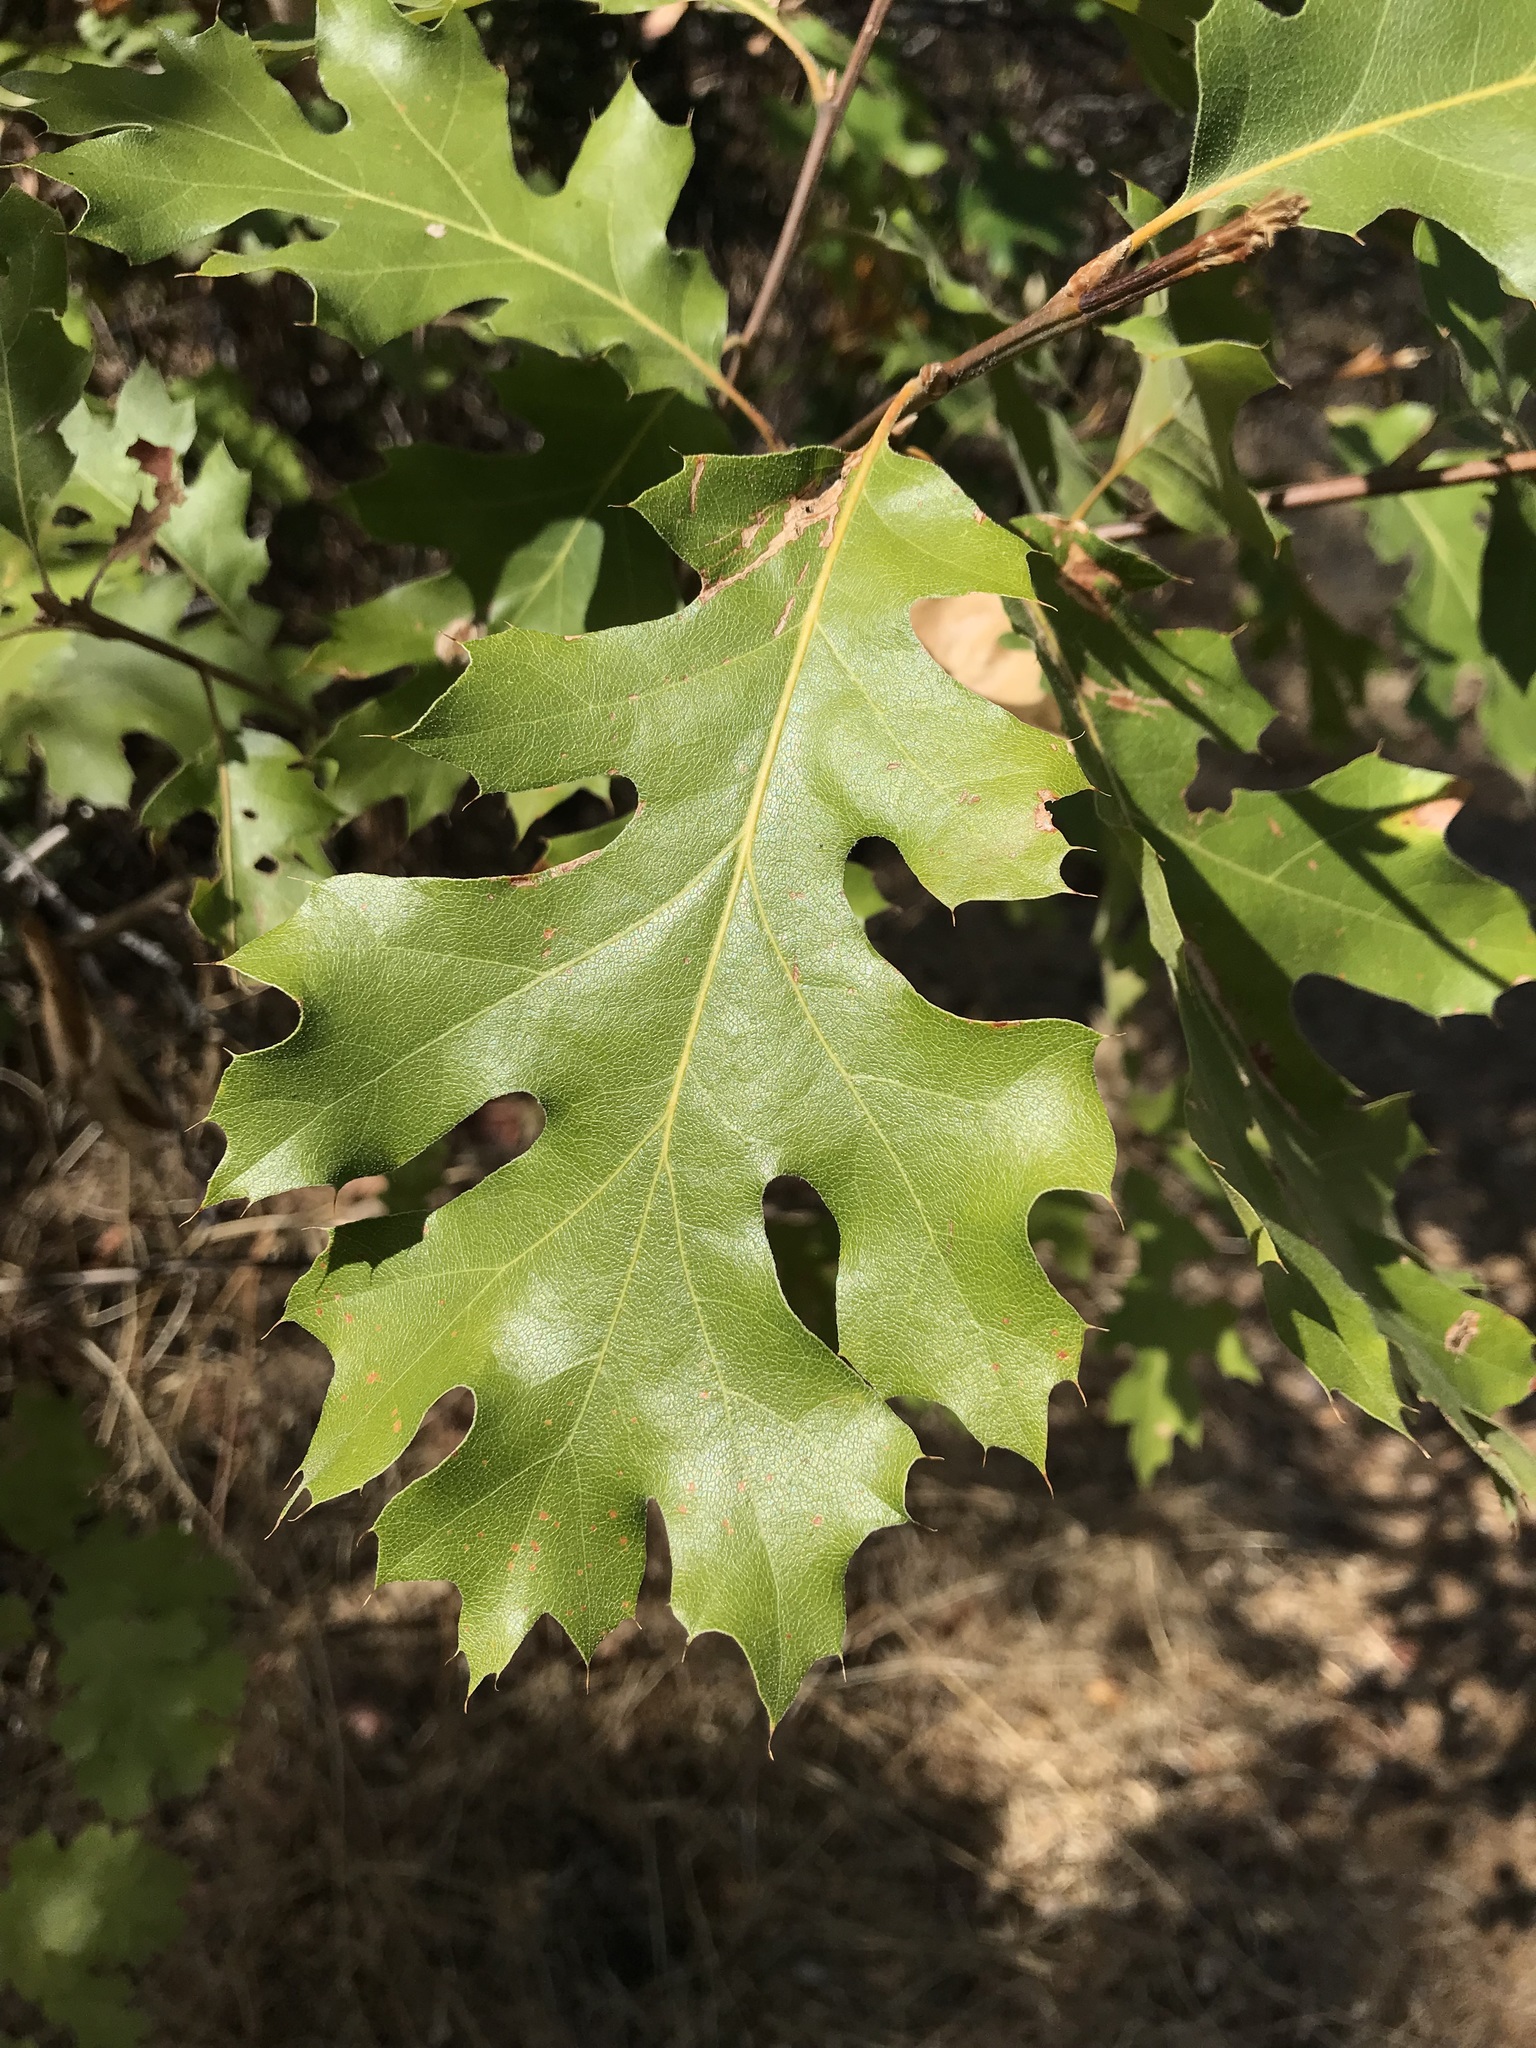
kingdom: Plantae
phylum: Tracheophyta
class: Magnoliopsida
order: Fagales
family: Fagaceae
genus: Quercus
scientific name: Quercus kelloggii
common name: California black oak
